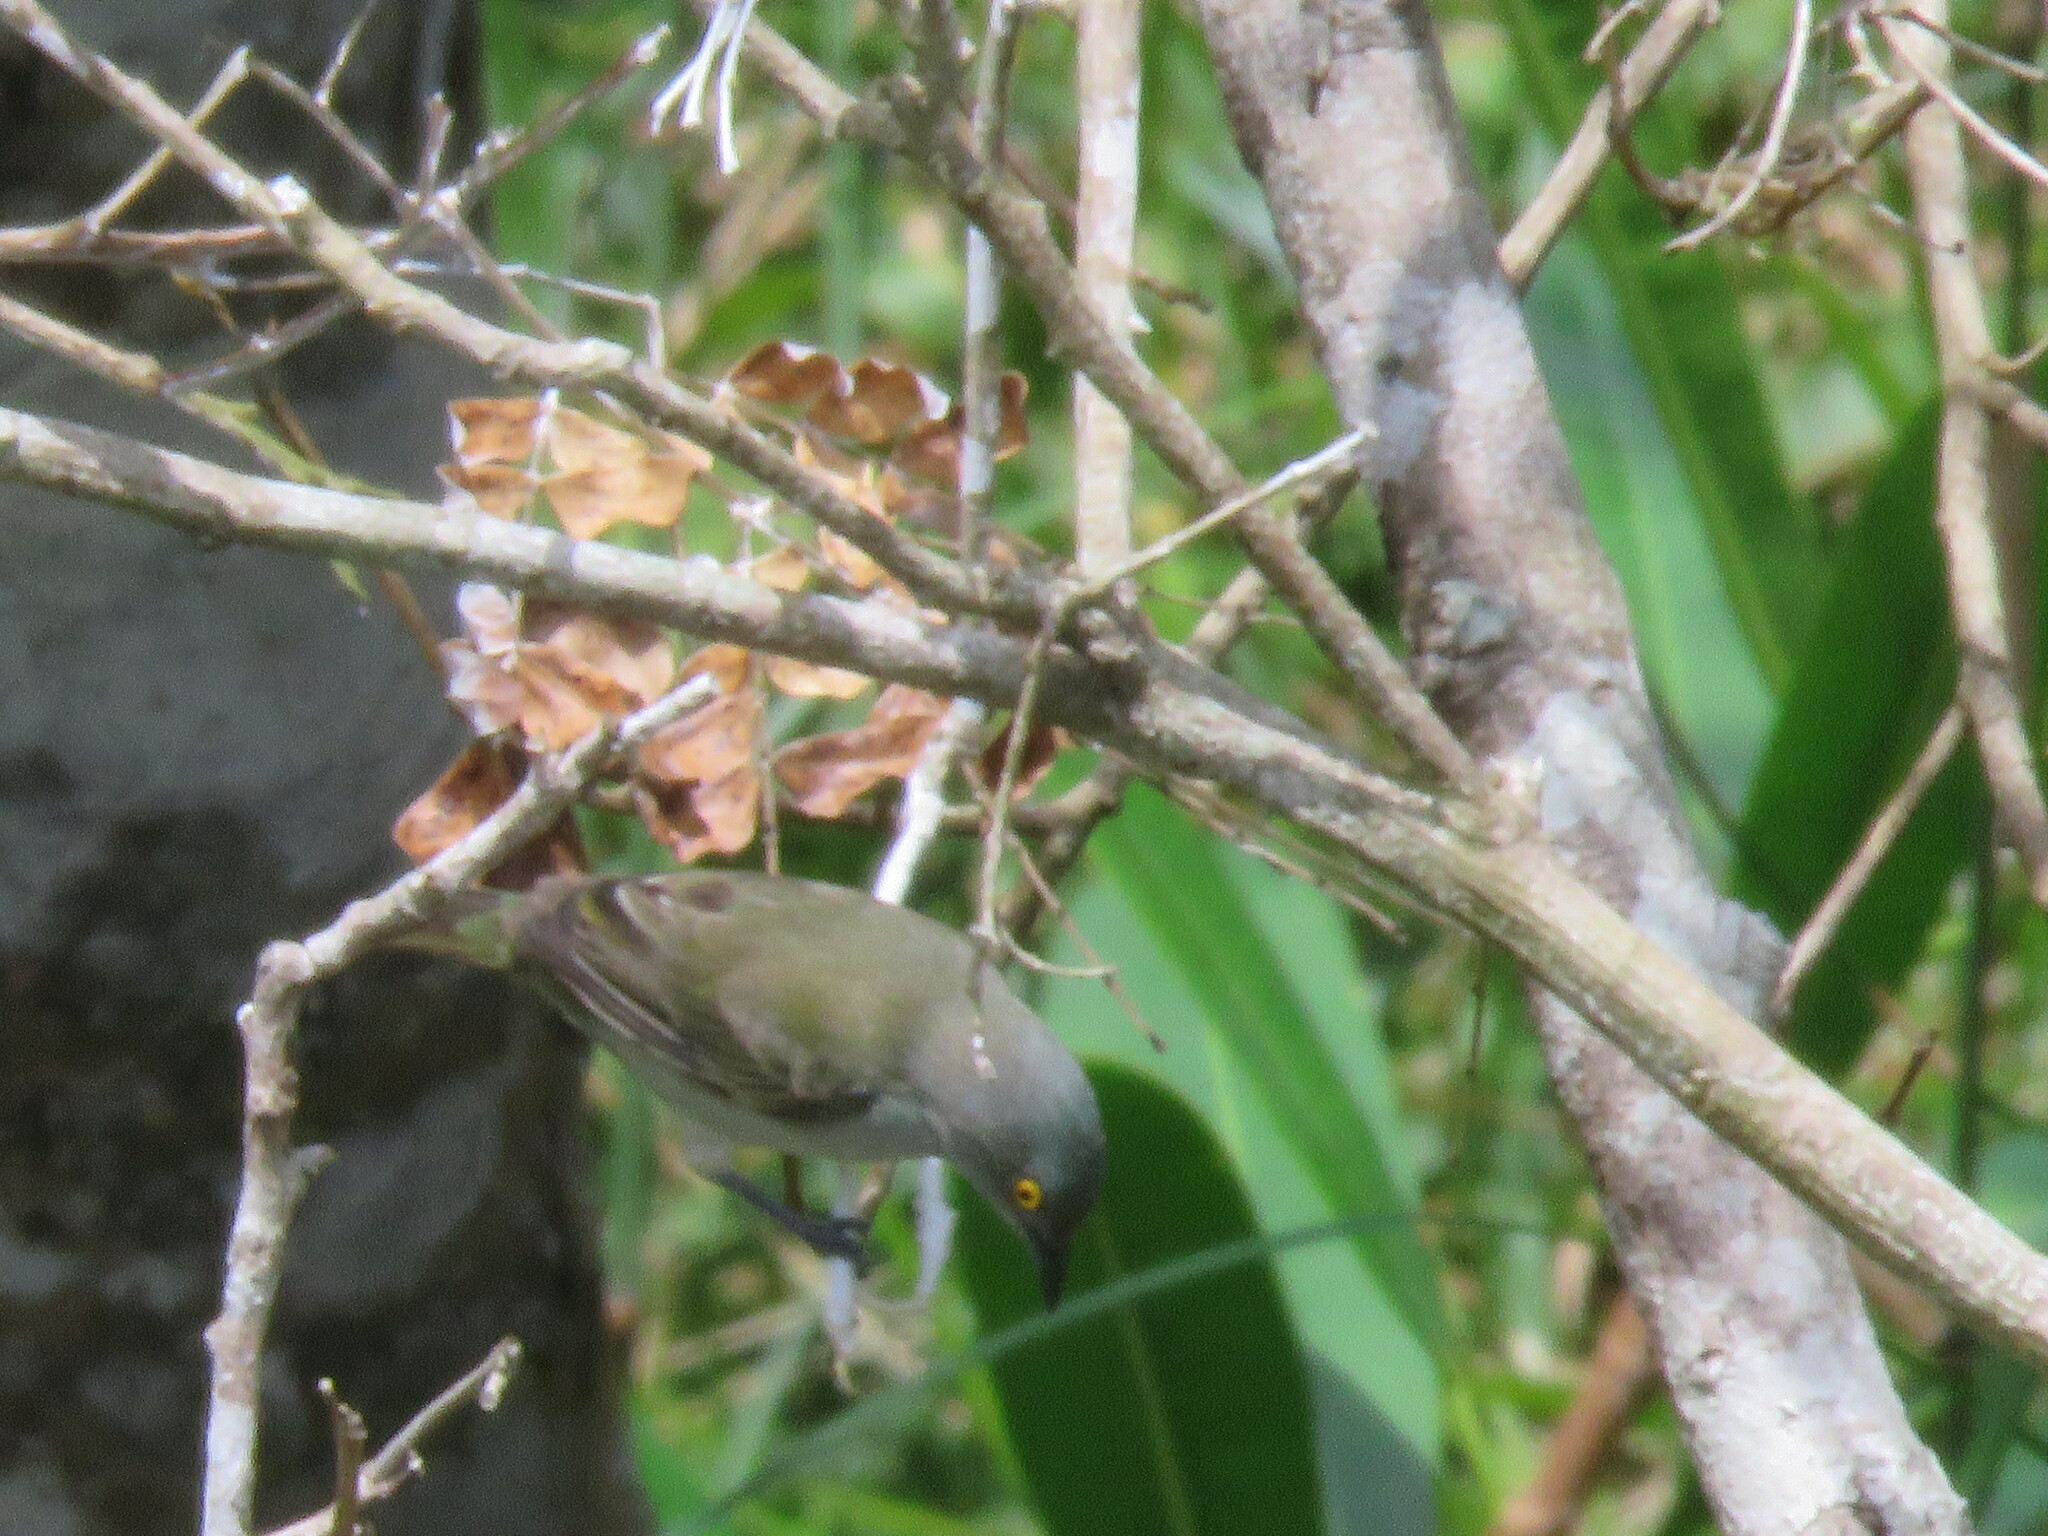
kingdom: Animalia
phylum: Chordata
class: Aves
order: Passeriformes
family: Thraupidae
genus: Dacnis
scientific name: Dacnis lineata
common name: Black-faced dacnis
